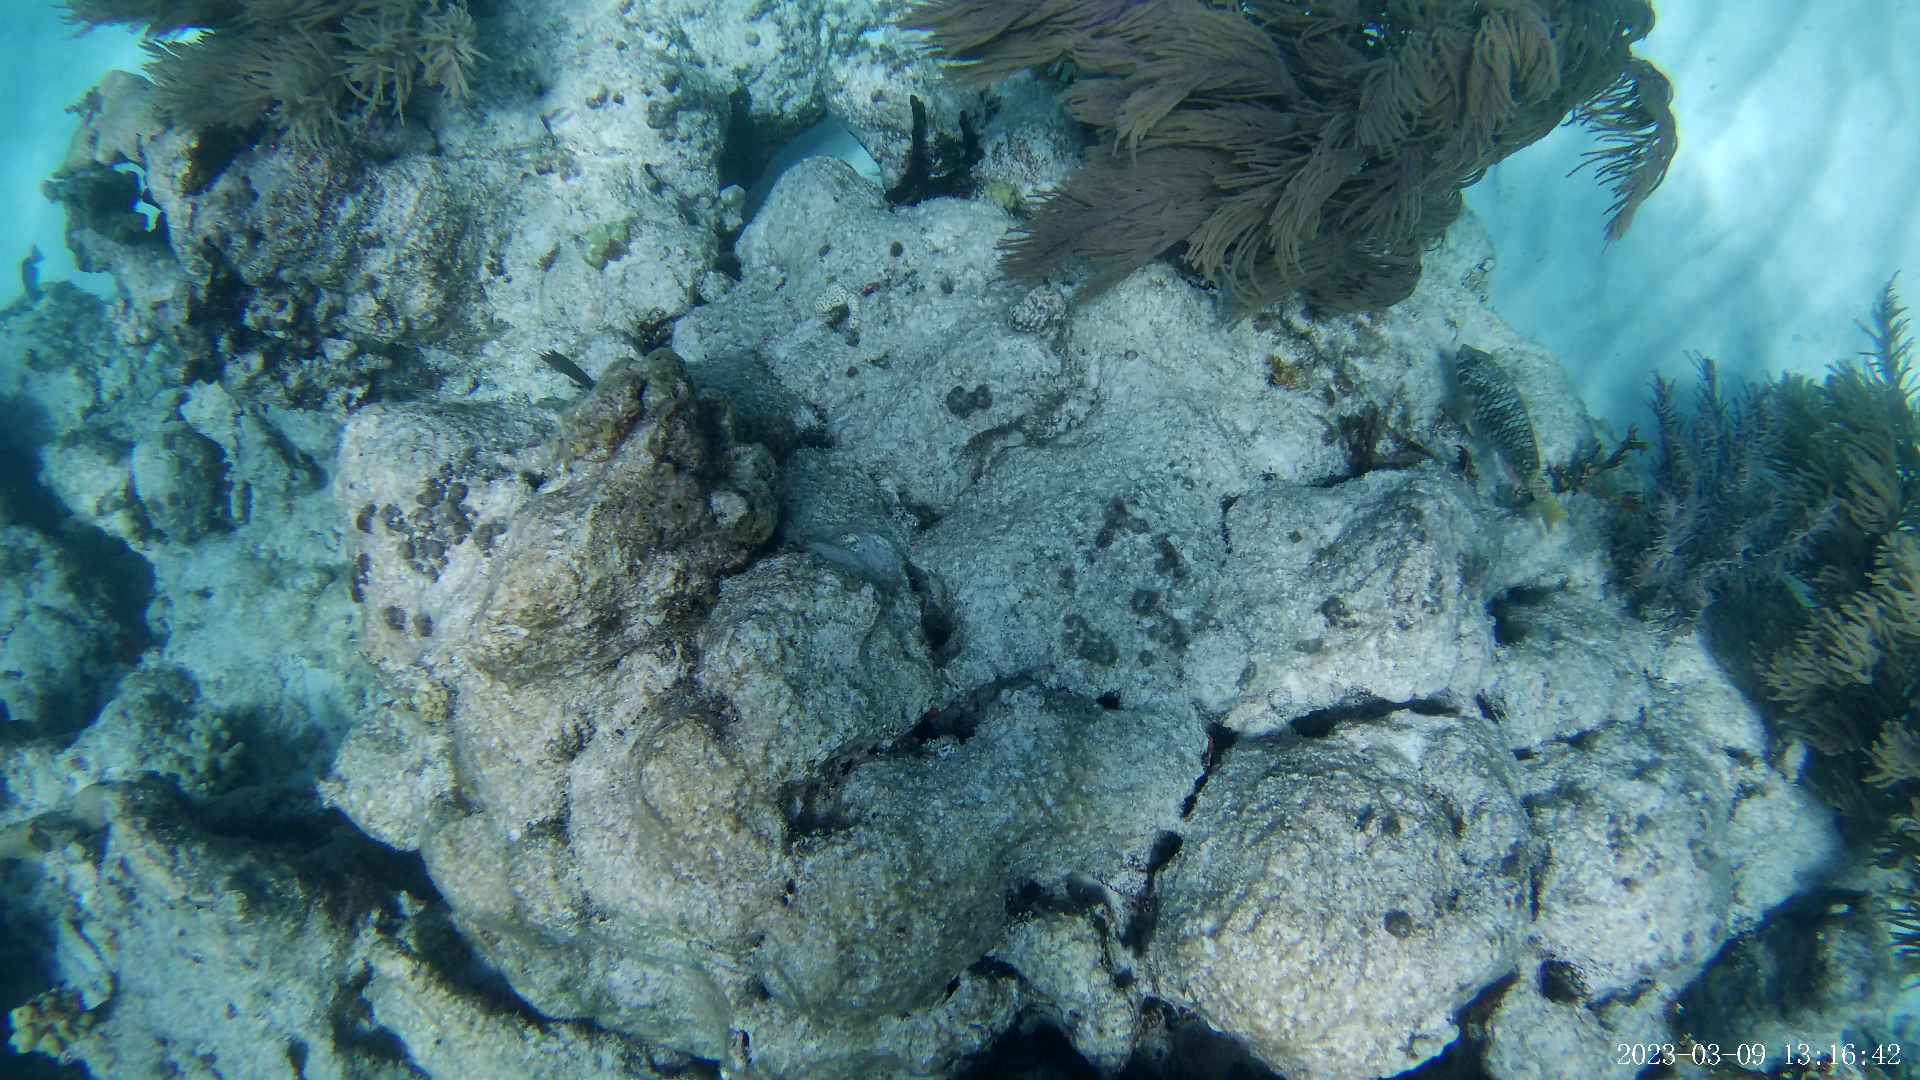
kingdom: Animalia
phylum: Chordata
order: Perciformes
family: Scaridae
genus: Sparisoma
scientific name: Sparisoma rubripinne
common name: Redfin parrotfish
